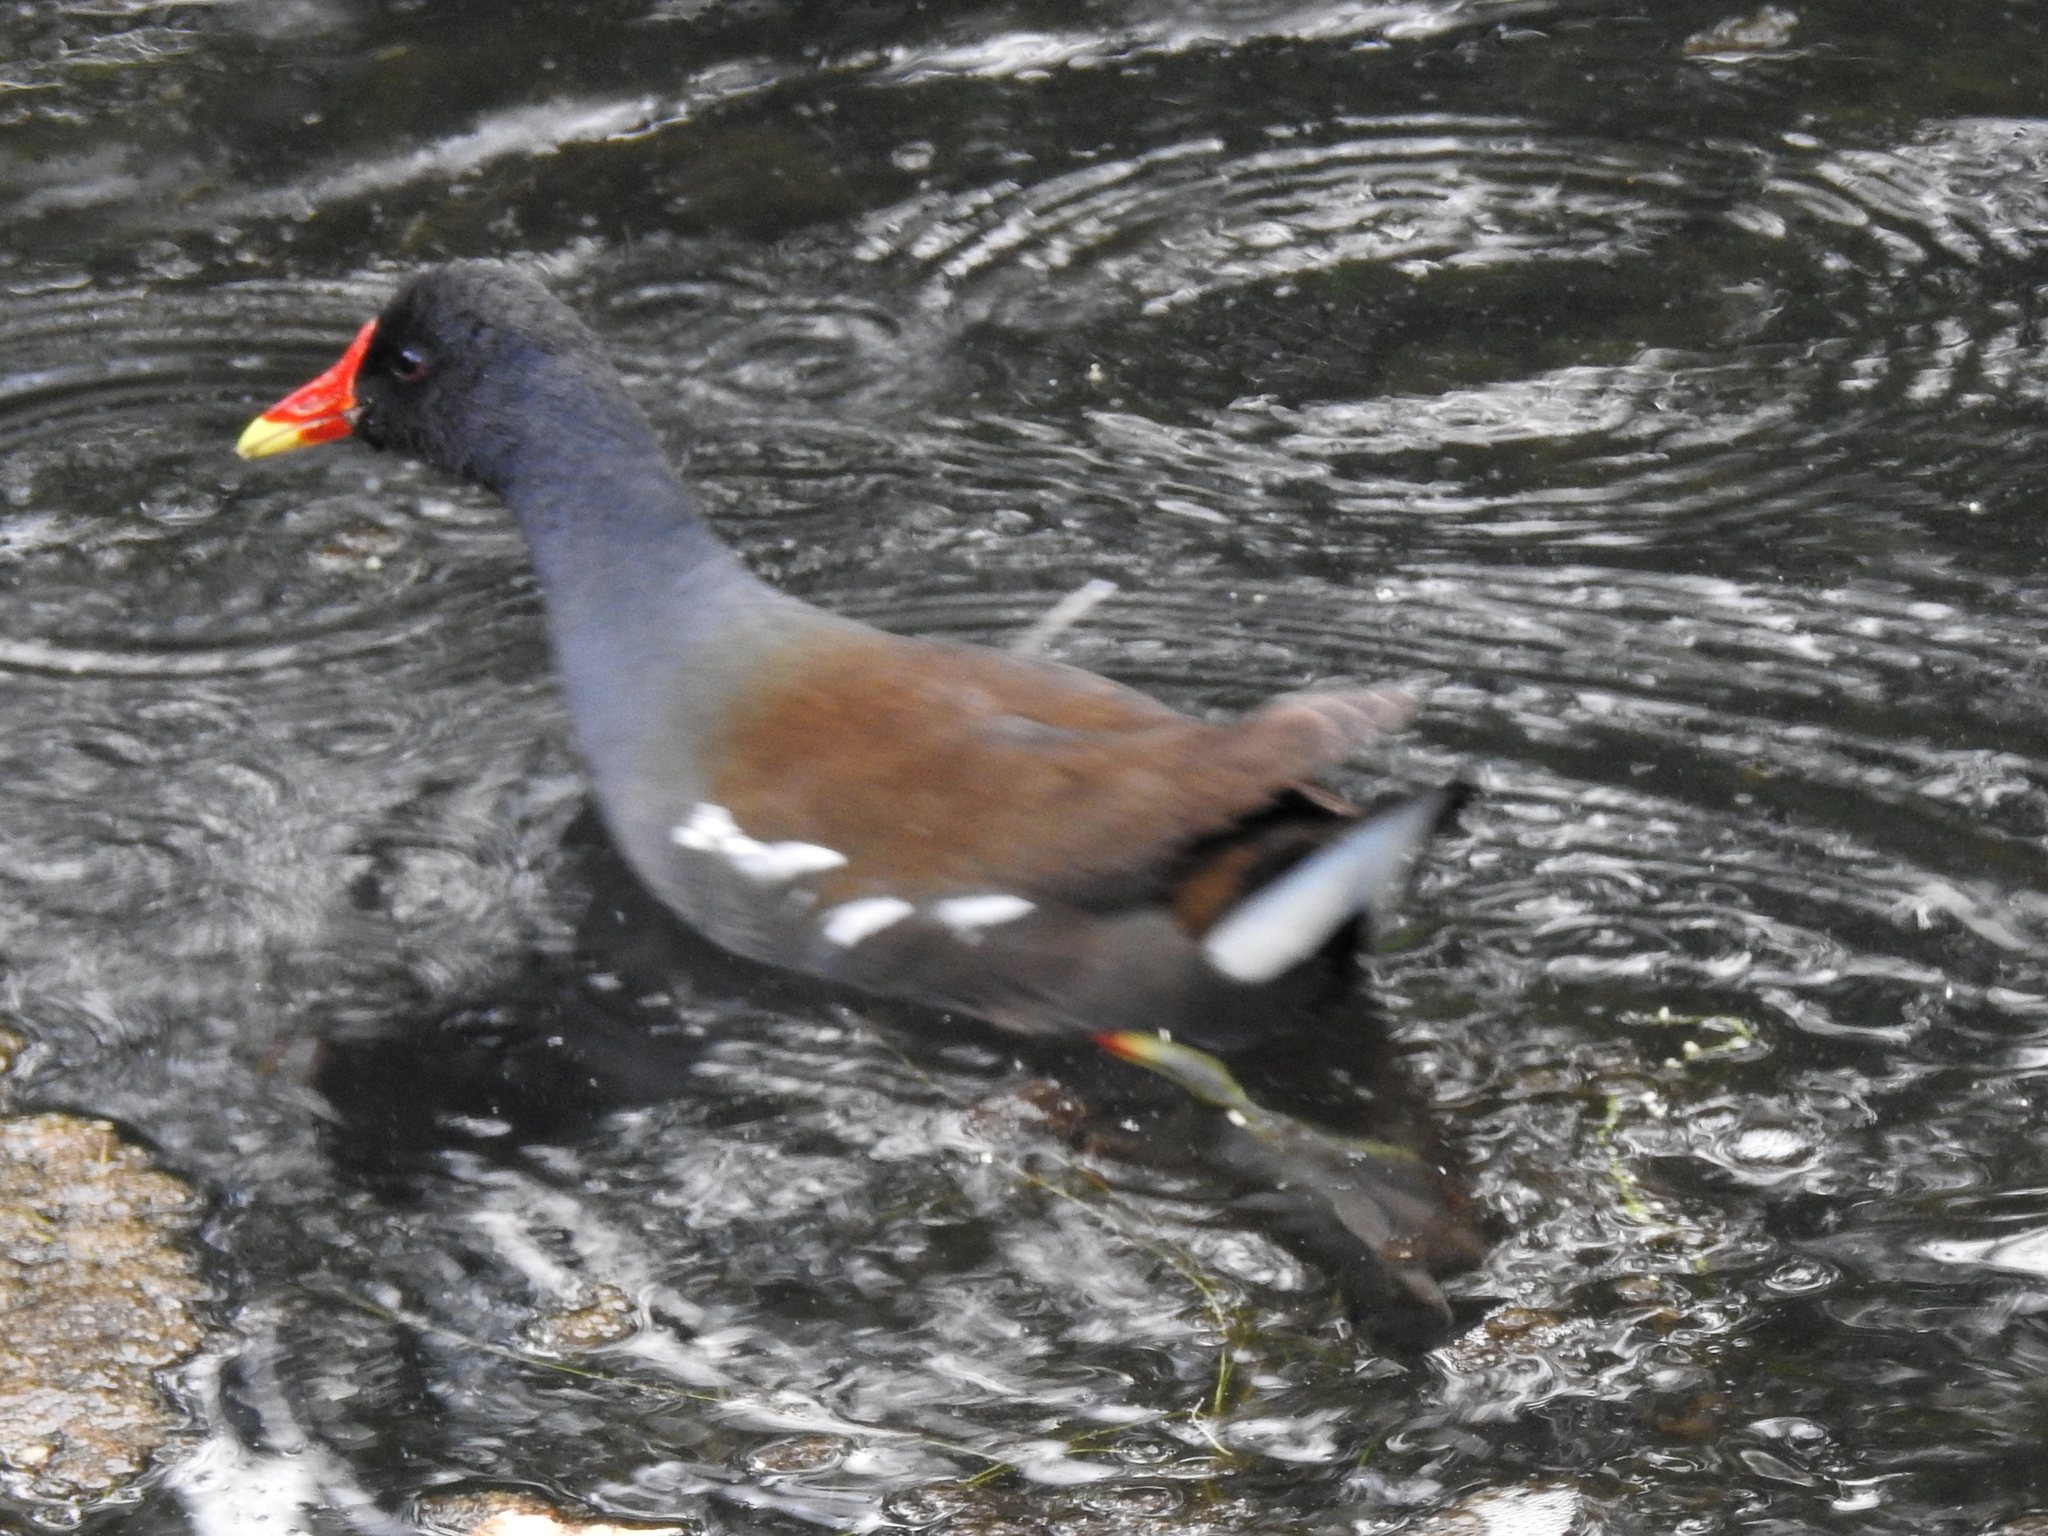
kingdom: Animalia
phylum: Chordata
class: Aves
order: Gruiformes
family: Rallidae
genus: Gallinula
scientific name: Gallinula chloropus
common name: Common moorhen
